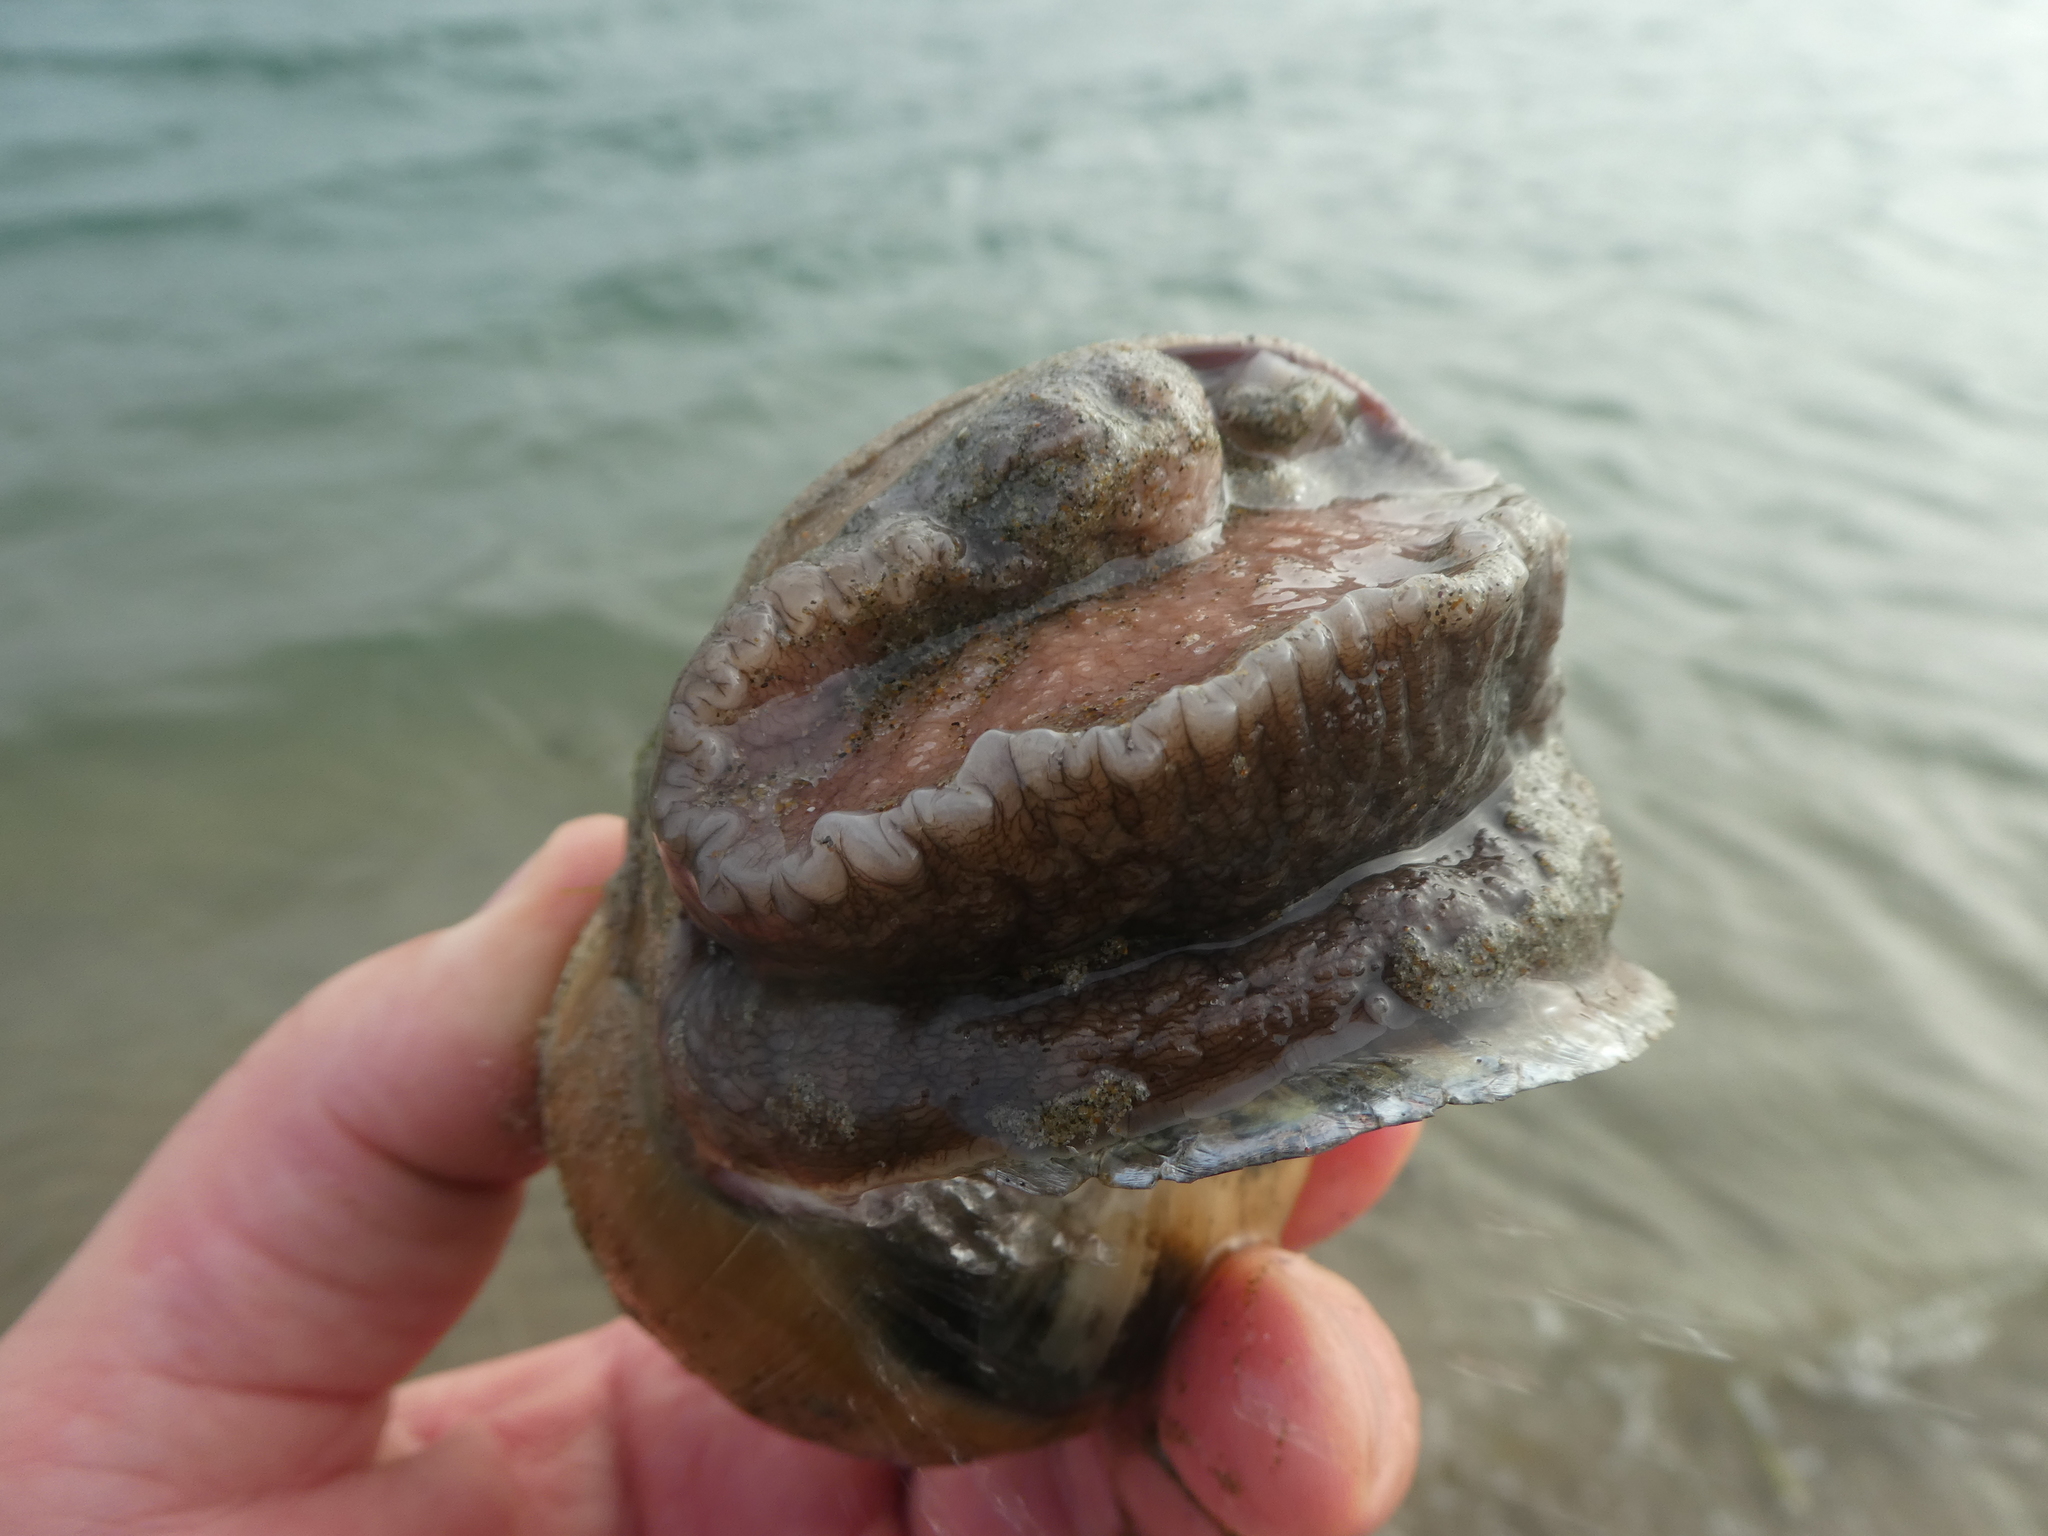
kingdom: Animalia
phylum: Mollusca
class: Gastropoda
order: Littorinimorpha
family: Naticidae
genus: Neverita
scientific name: Neverita lewisii
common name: Lewis' moonsnail
